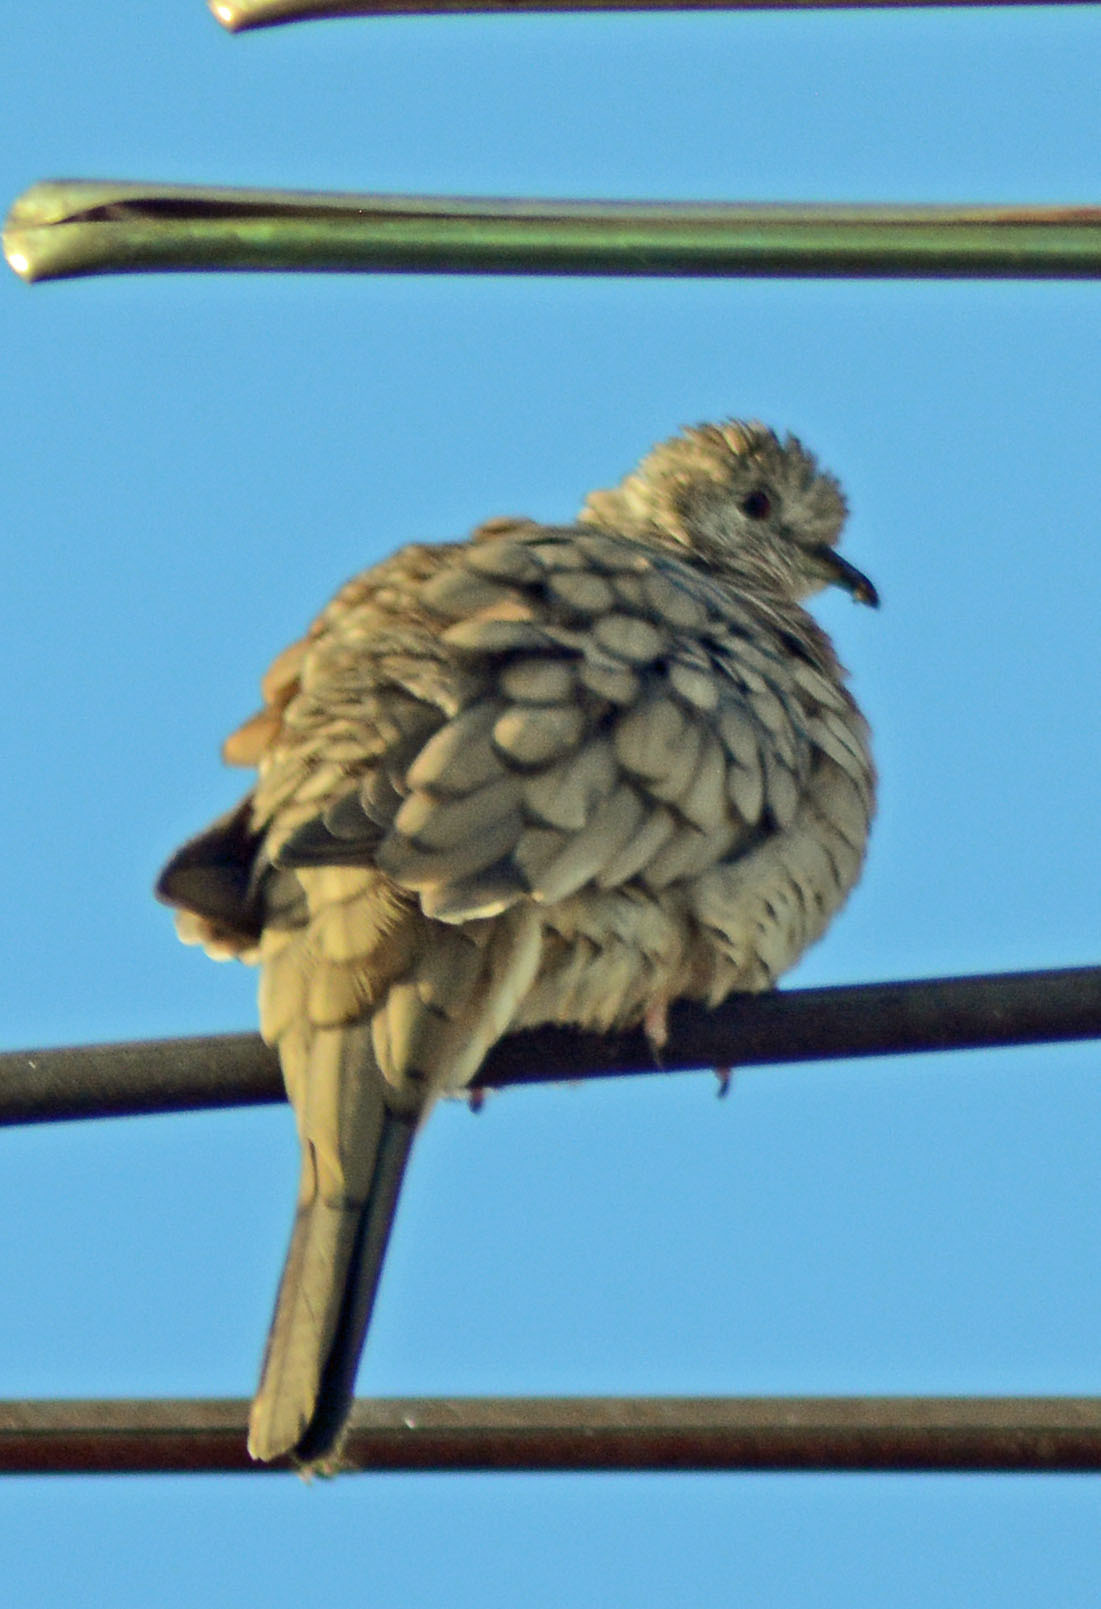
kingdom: Animalia
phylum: Chordata
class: Aves
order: Columbiformes
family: Columbidae
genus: Columbina
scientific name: Columbina inca
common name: Inca dove
